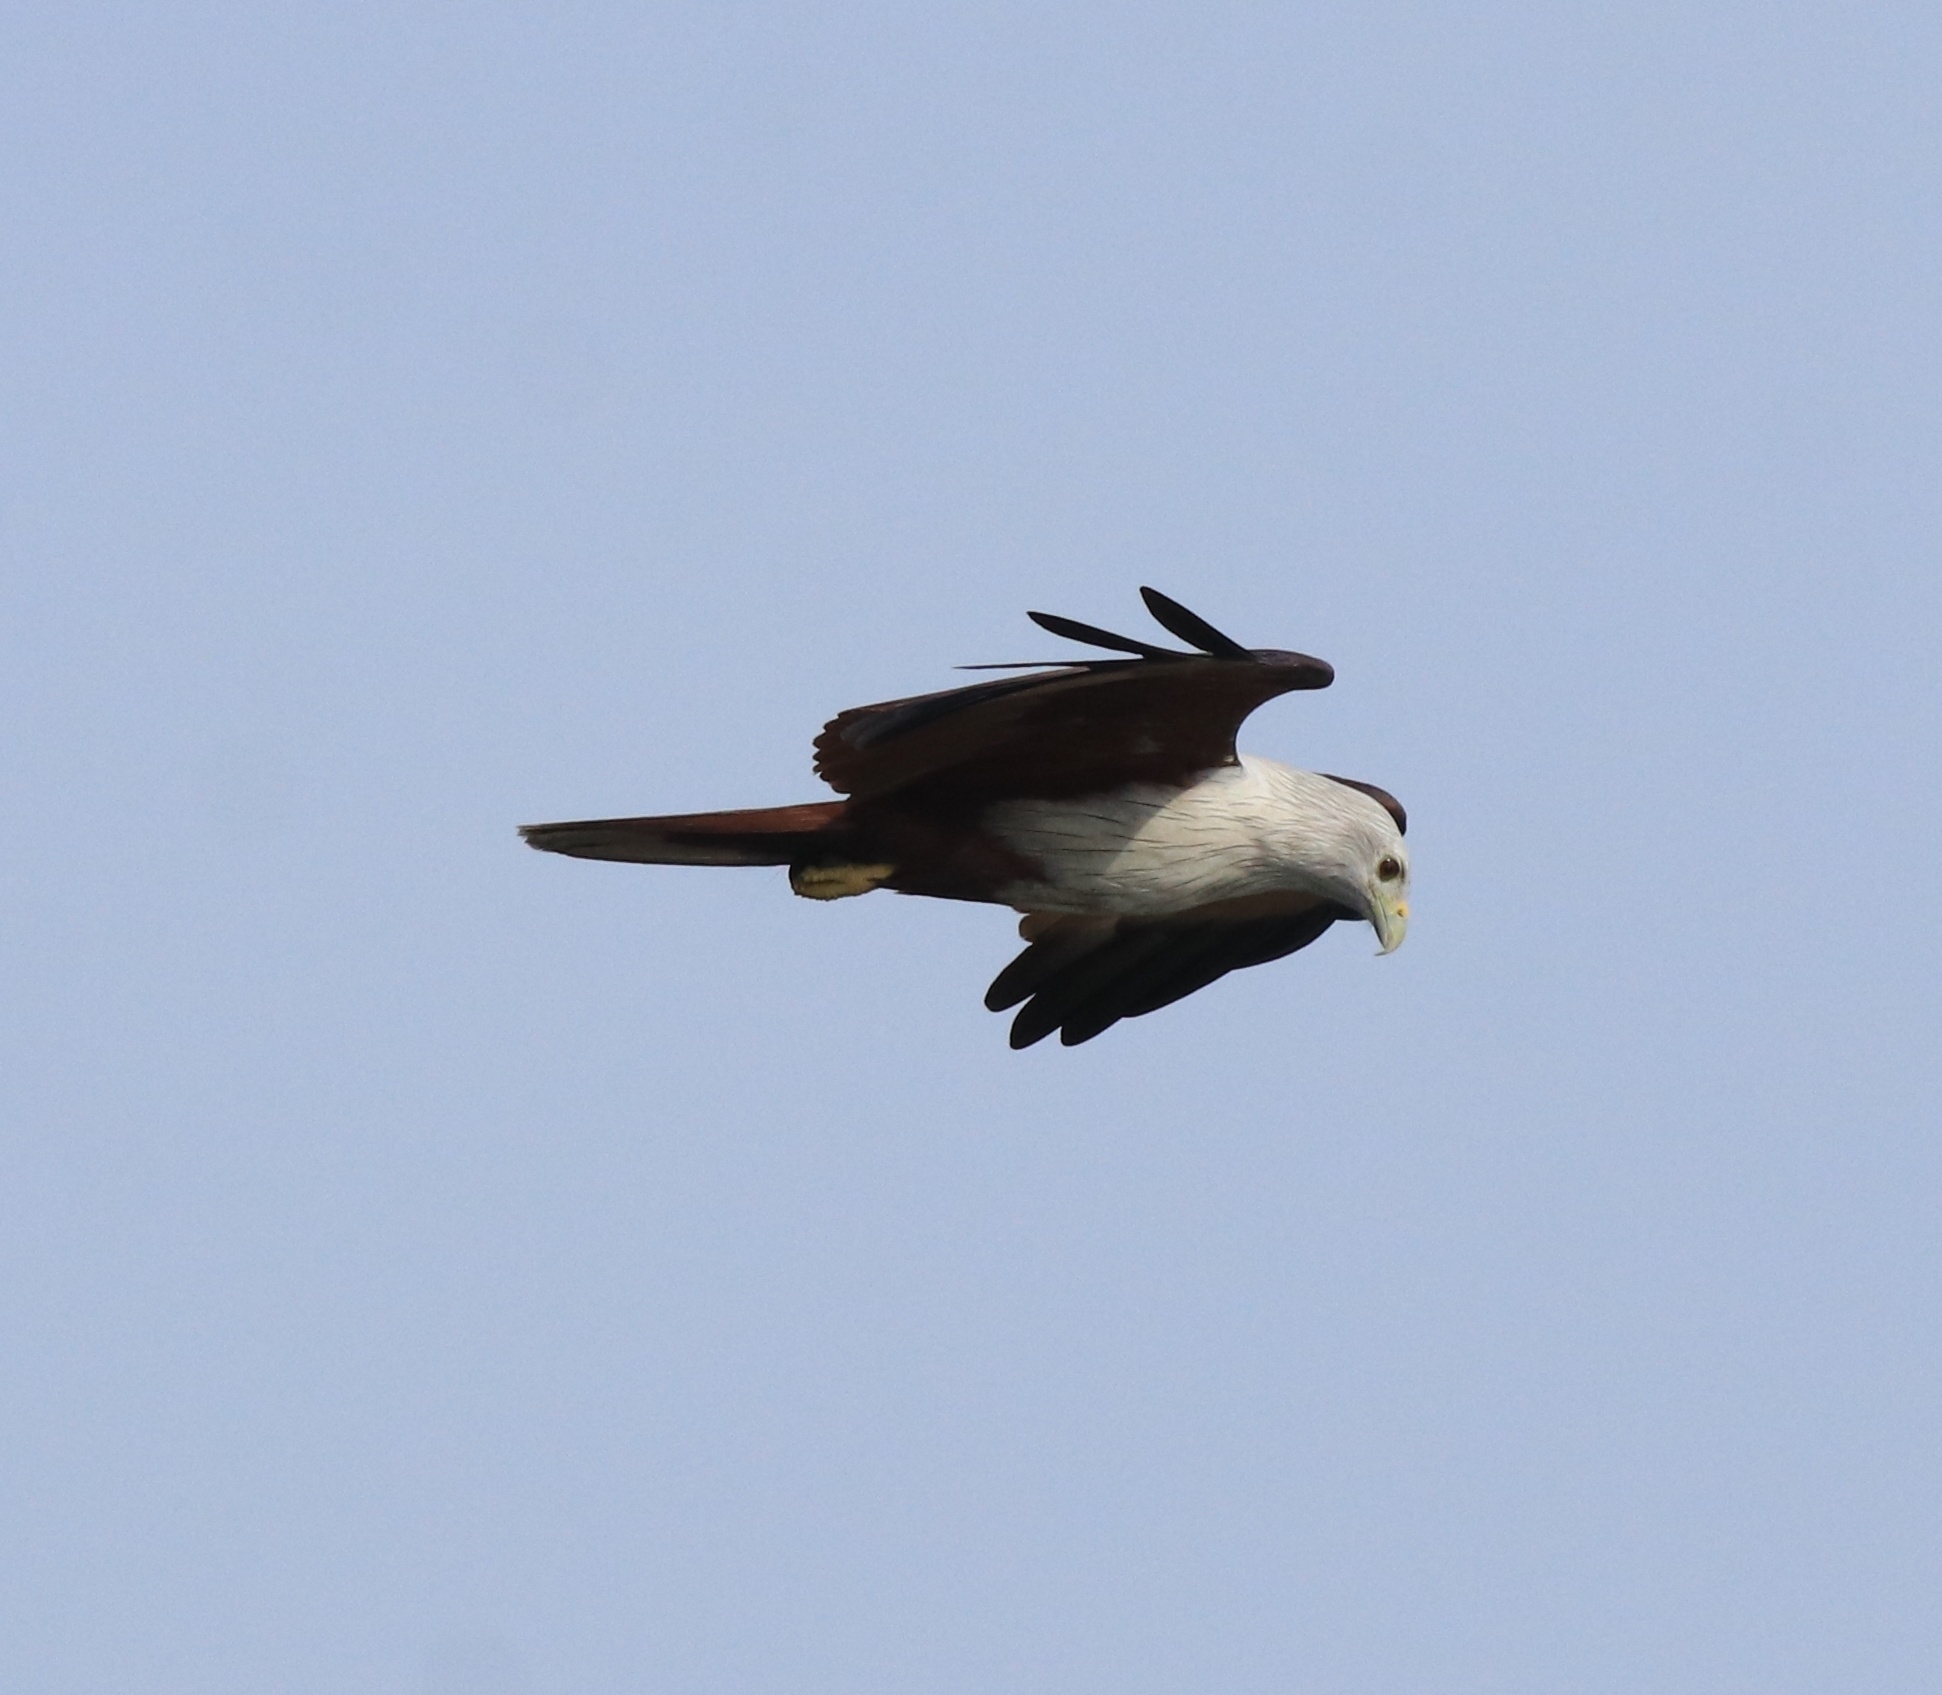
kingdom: Animalia
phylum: Chordata
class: Aves
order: Accipitriformes
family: Accipitridae
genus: Haliastur
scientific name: Haliastur indus
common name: Brahminy kite
